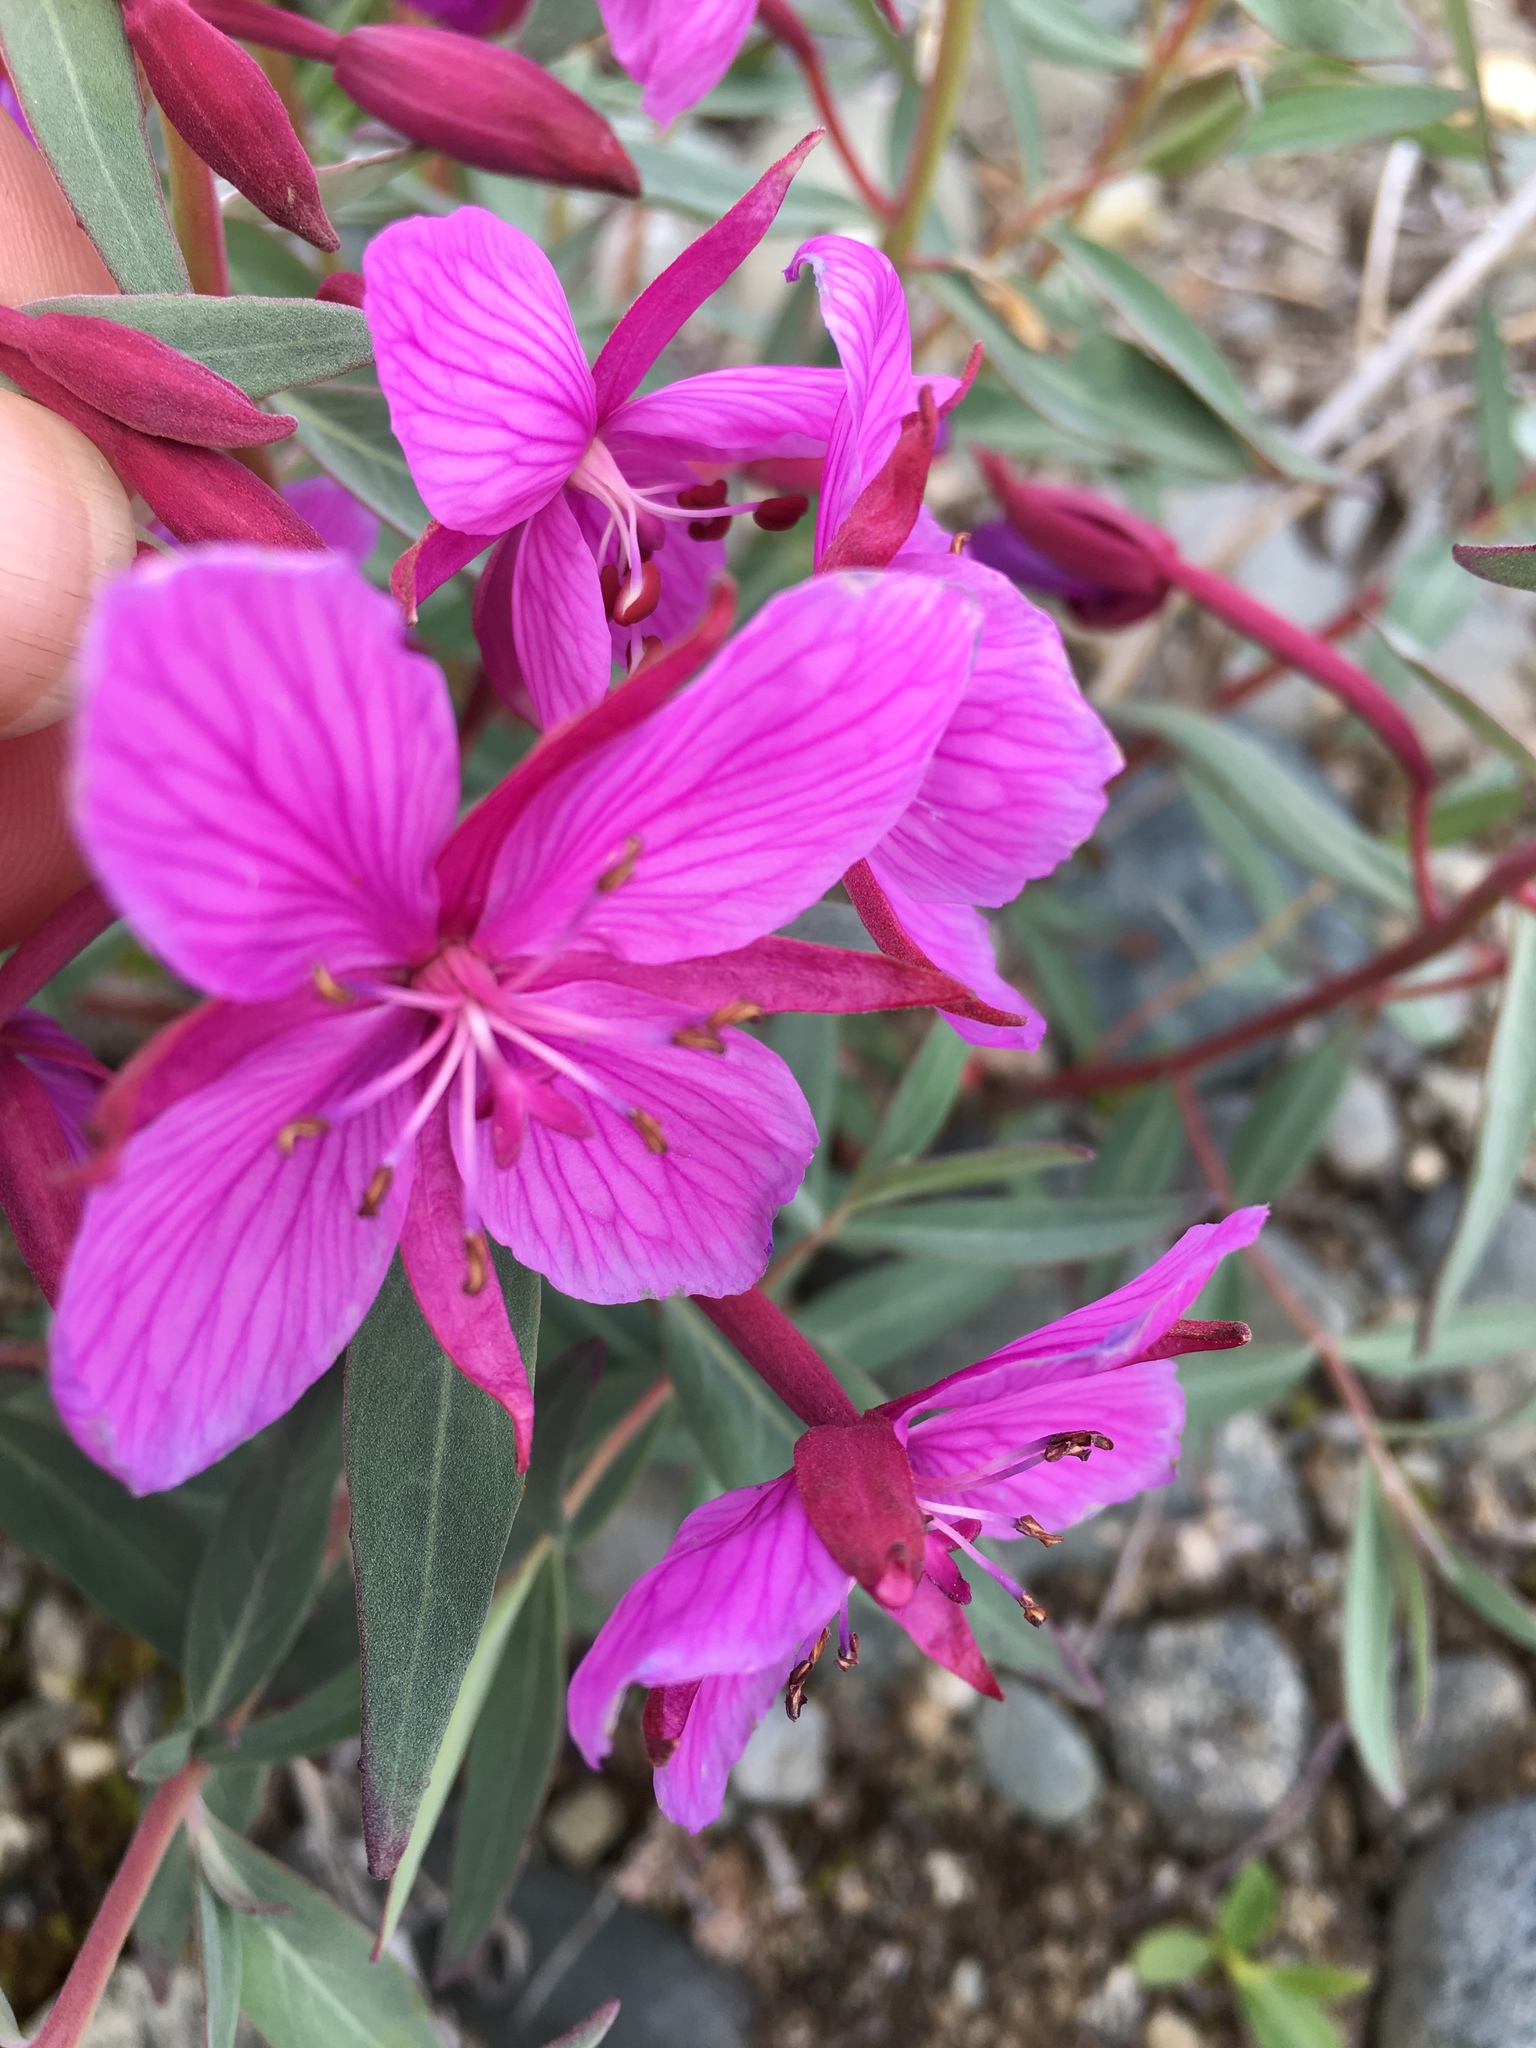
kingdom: Plantae
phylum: Tracheophyta
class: Magnoliopsida
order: Myrtales
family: Onagraceae
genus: Chamaenerion
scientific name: Chamaenerion latifolium
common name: Dwarf fireweed
